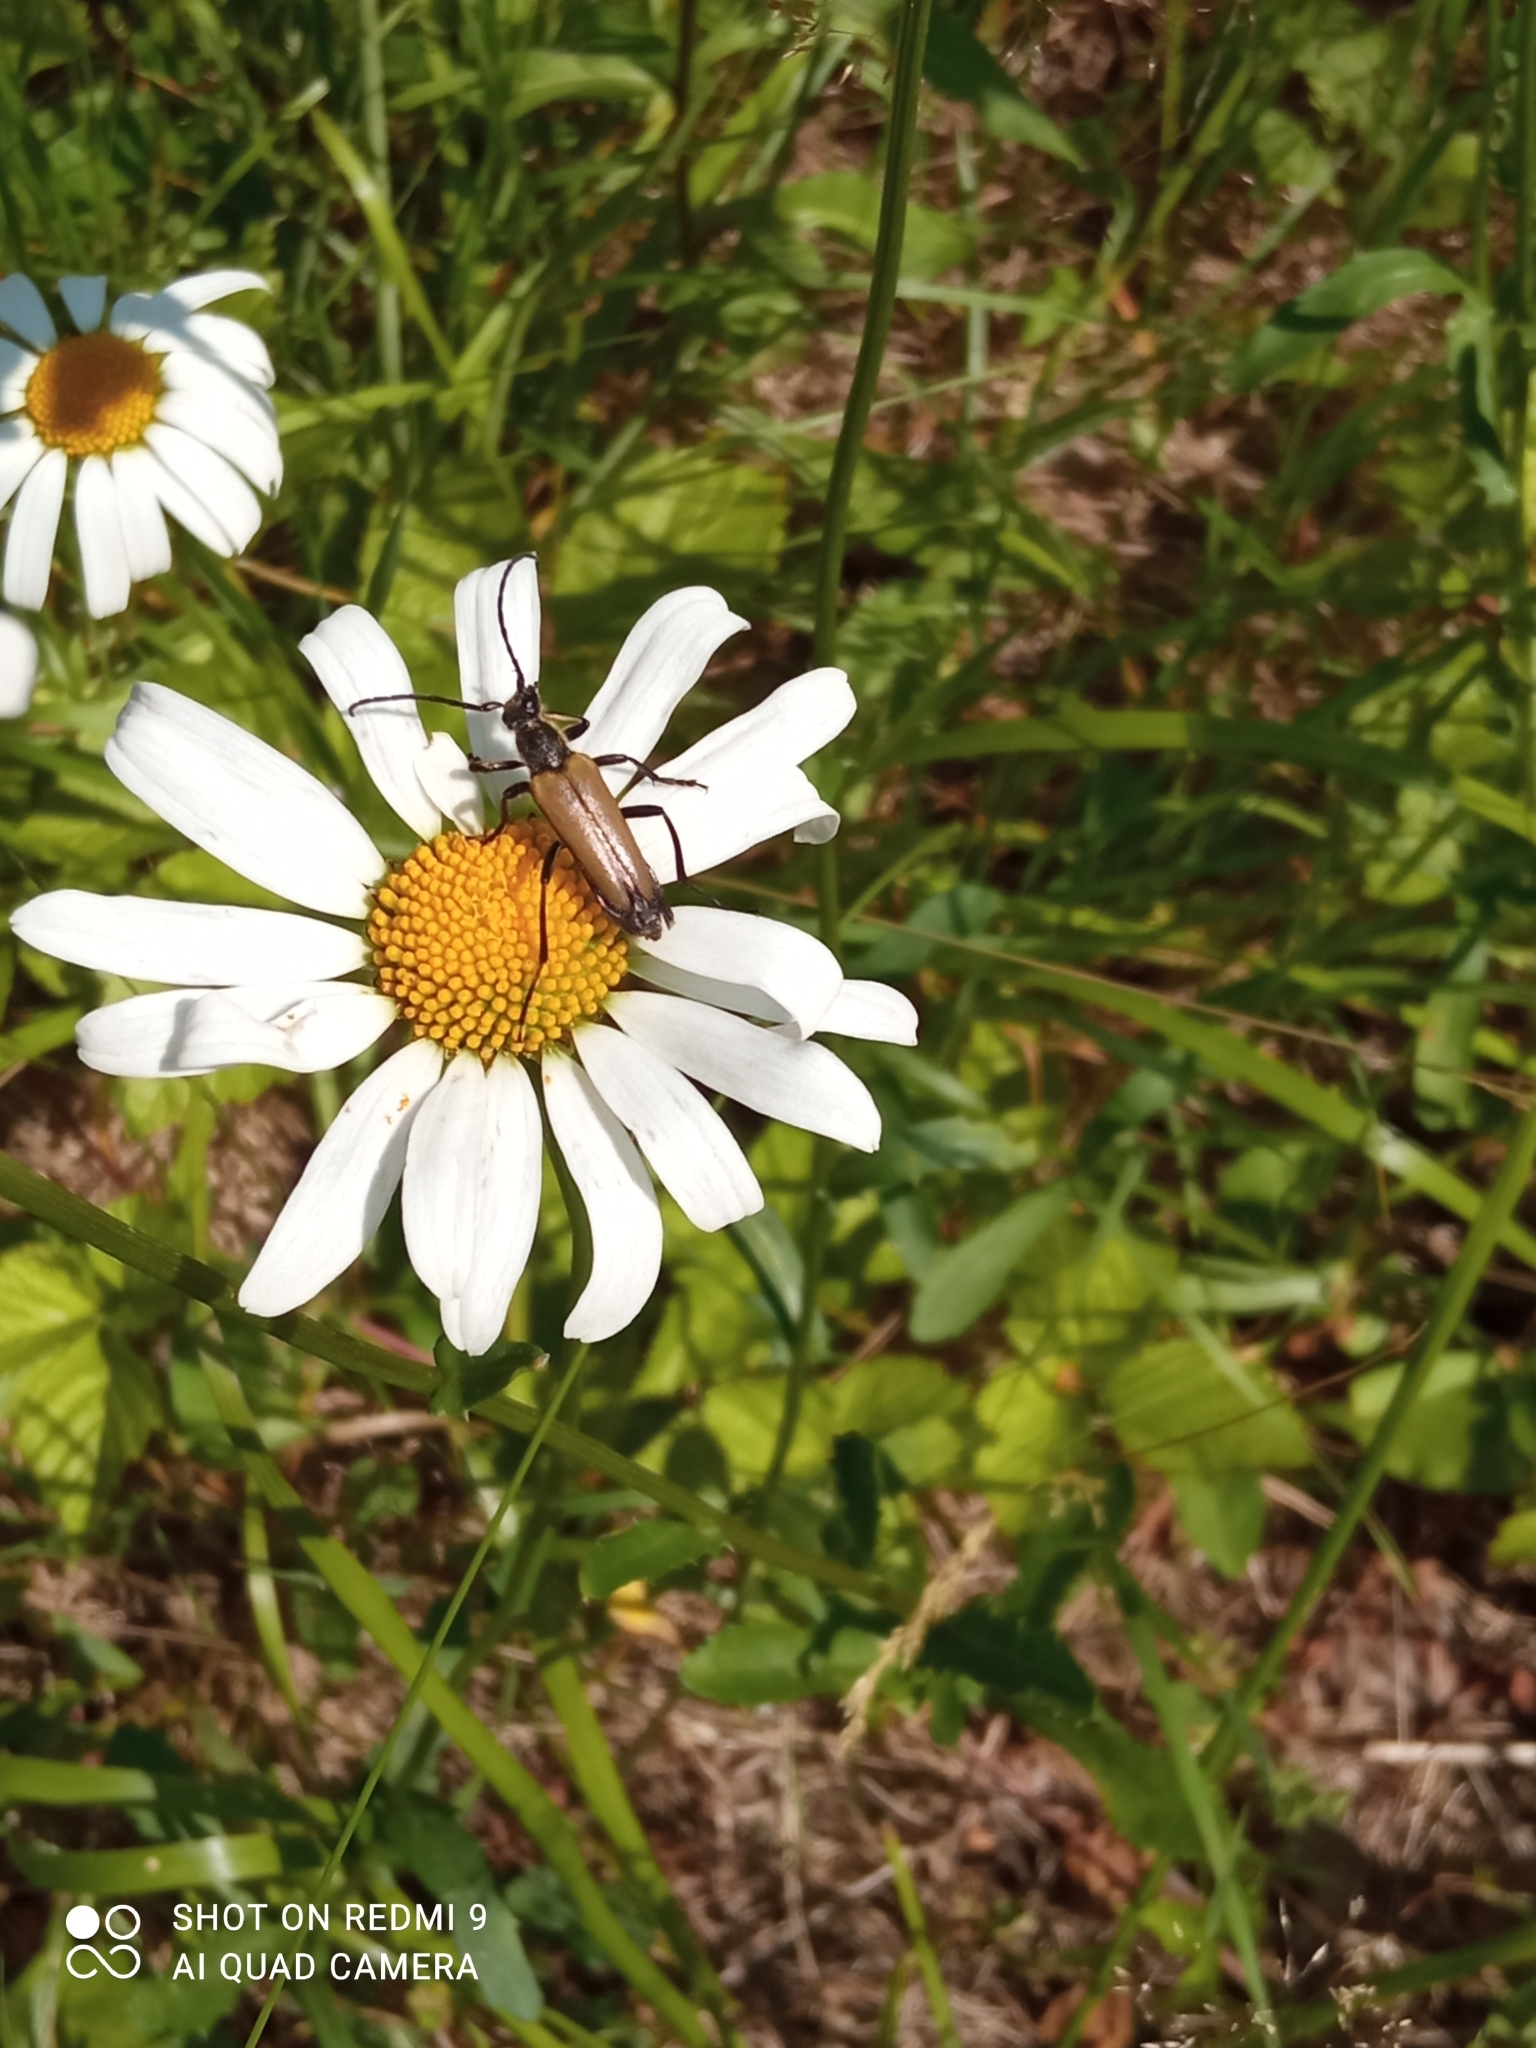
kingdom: Animalia
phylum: Arthropoda
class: Insecta
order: Coleoptera
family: Cerambycidae
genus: Lepturalia
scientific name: Lepturalia nigripes
